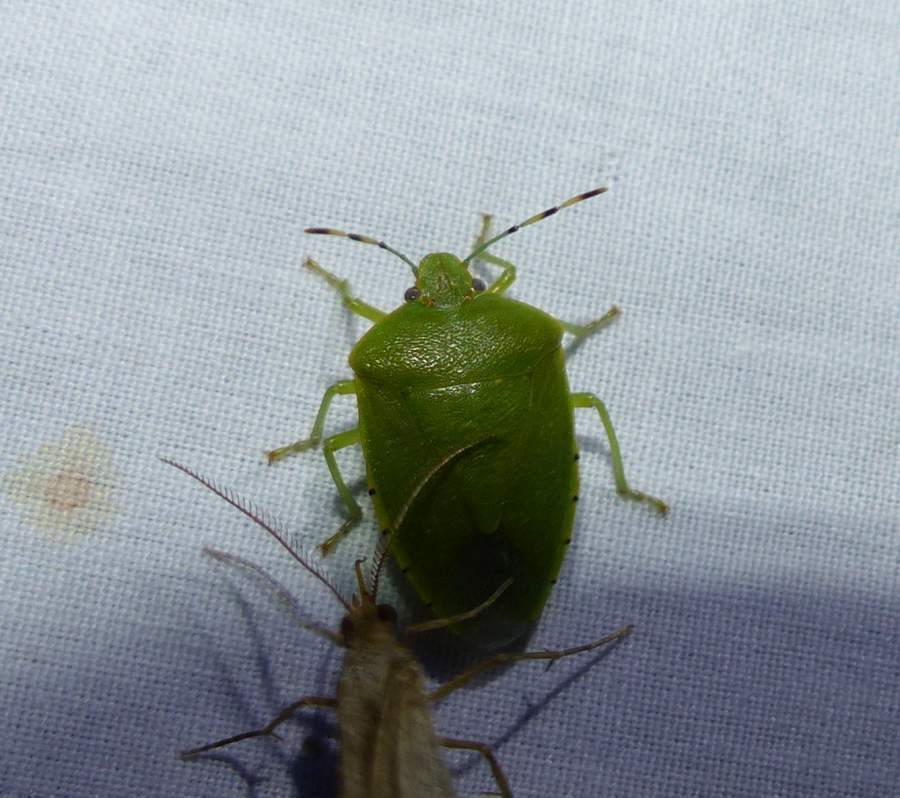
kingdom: Animalia
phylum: Arthropoda
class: Insecta
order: Hemiptera
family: Pentatomidae
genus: Chinavia
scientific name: Chinavia hilaris
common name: Green stink bug
